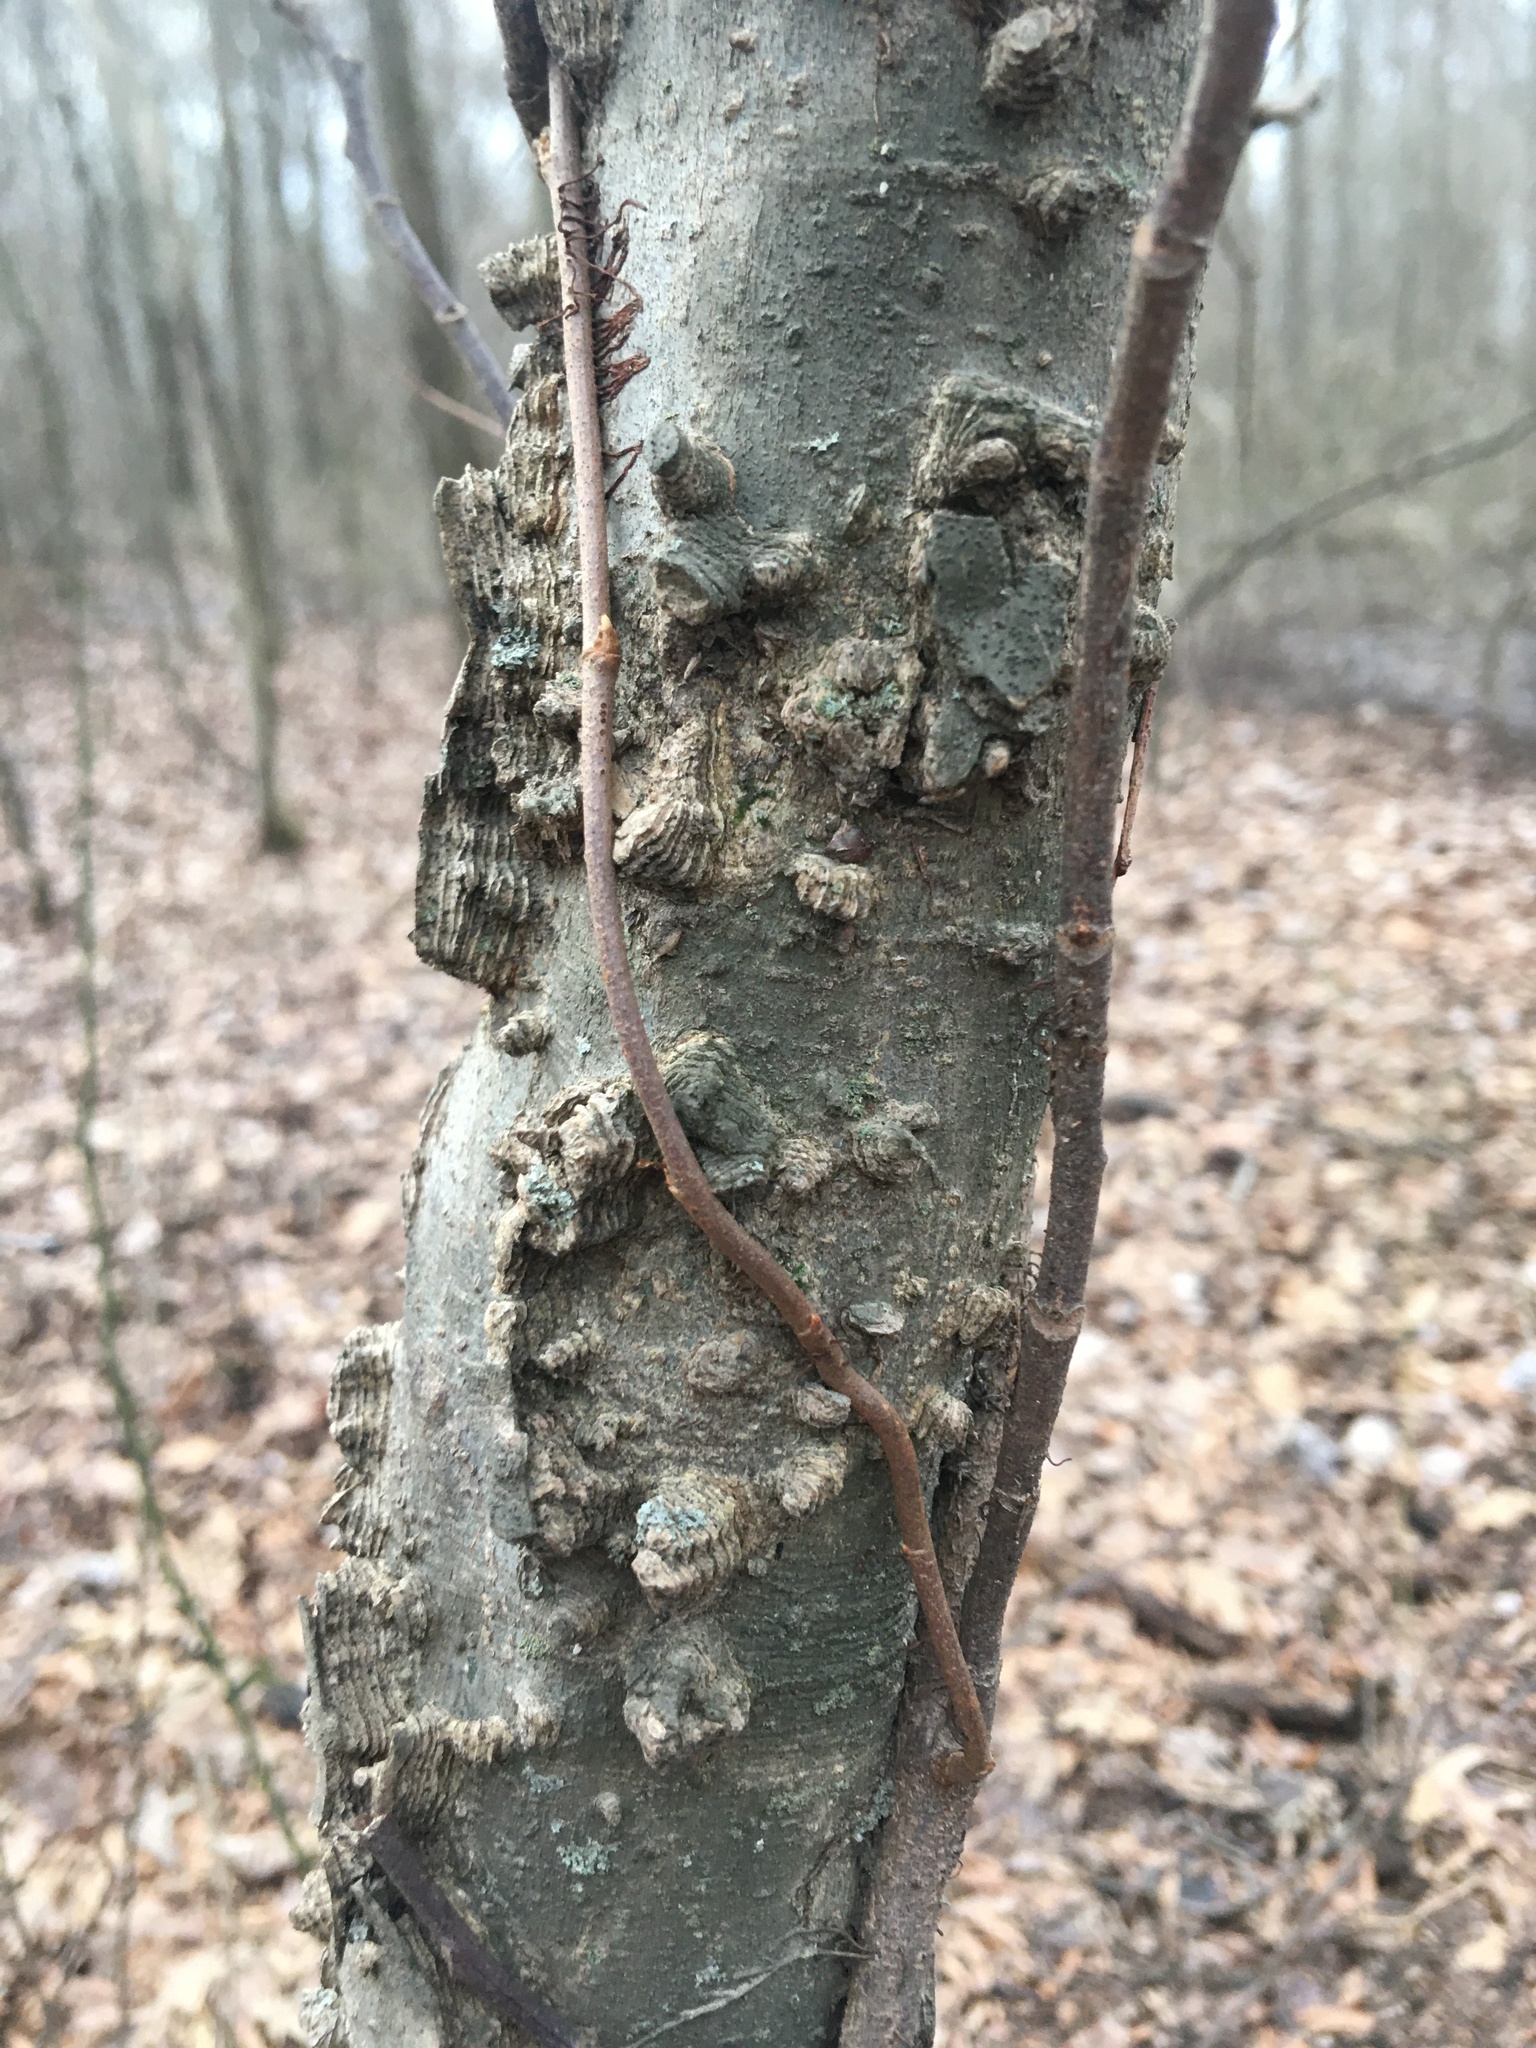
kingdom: Plantae
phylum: Tracheophyta
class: Magnoliopsida
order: Rosales
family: Cannabaceae
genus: Celtis
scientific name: Celtis laevigata
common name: Sugarberry
